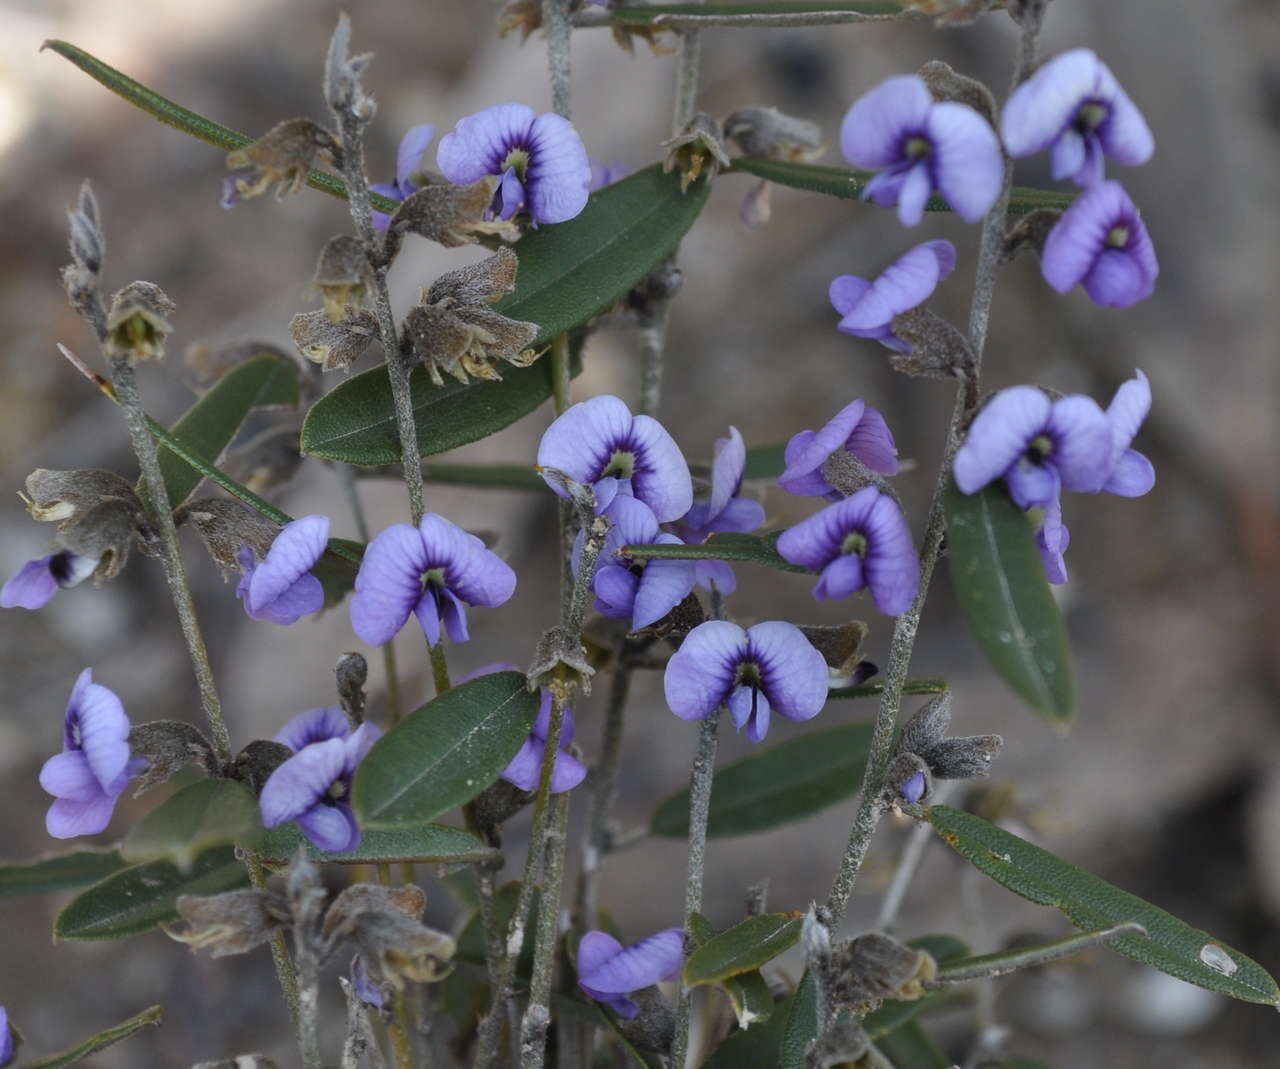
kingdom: Plantae
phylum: Tracheophyta
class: Magnoliopsida
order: Fabales
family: Fabaceae
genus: Hovea
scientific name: Hovea heterophylla
